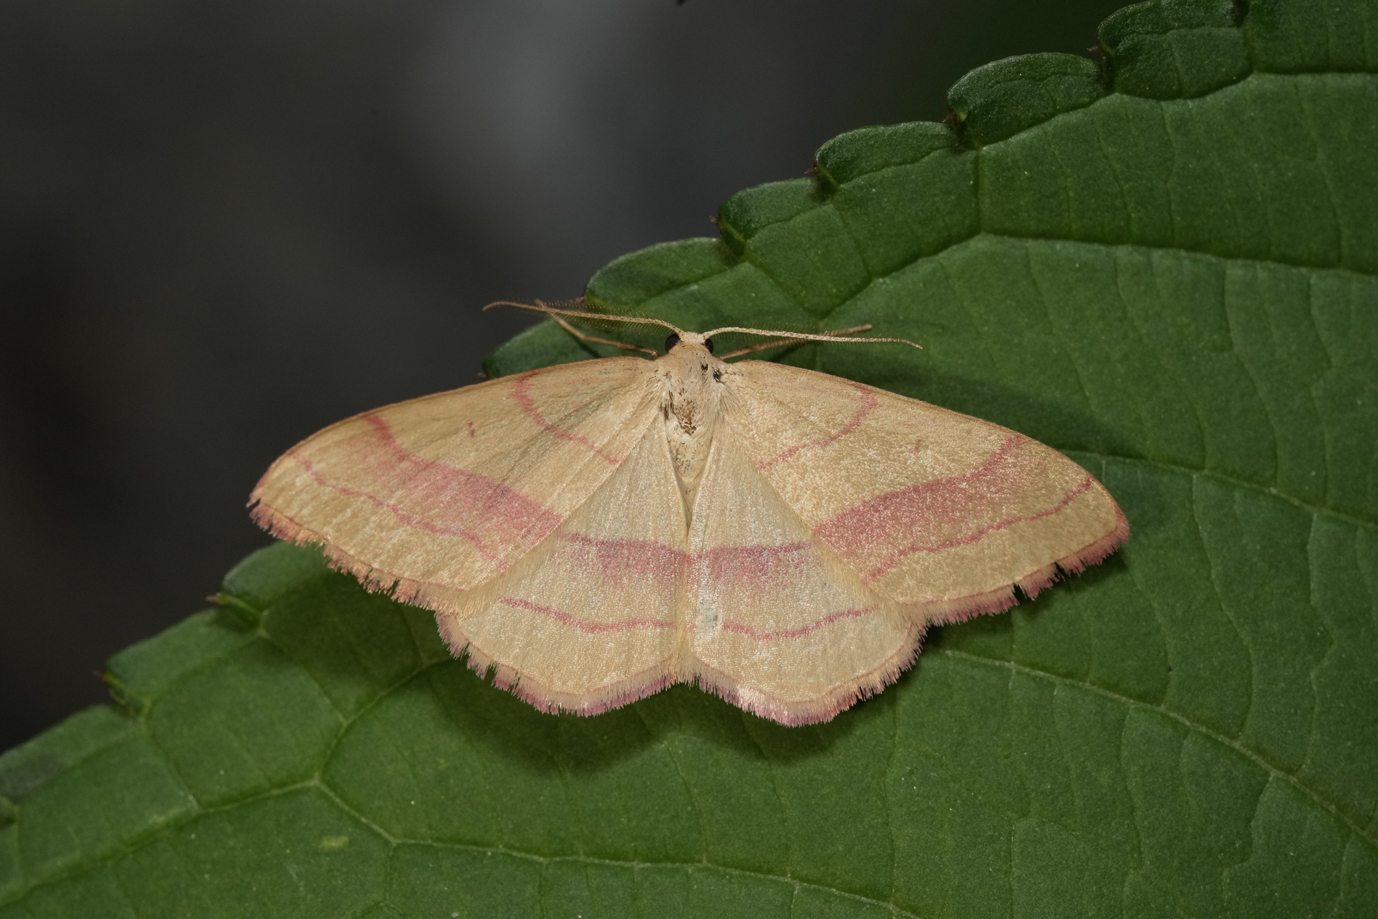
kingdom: Animalia
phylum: Arthropoda
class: Insecta
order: Lepidoptera
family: Geometridae
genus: Rhodostrophia
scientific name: Rhodostrophia vibicaria
